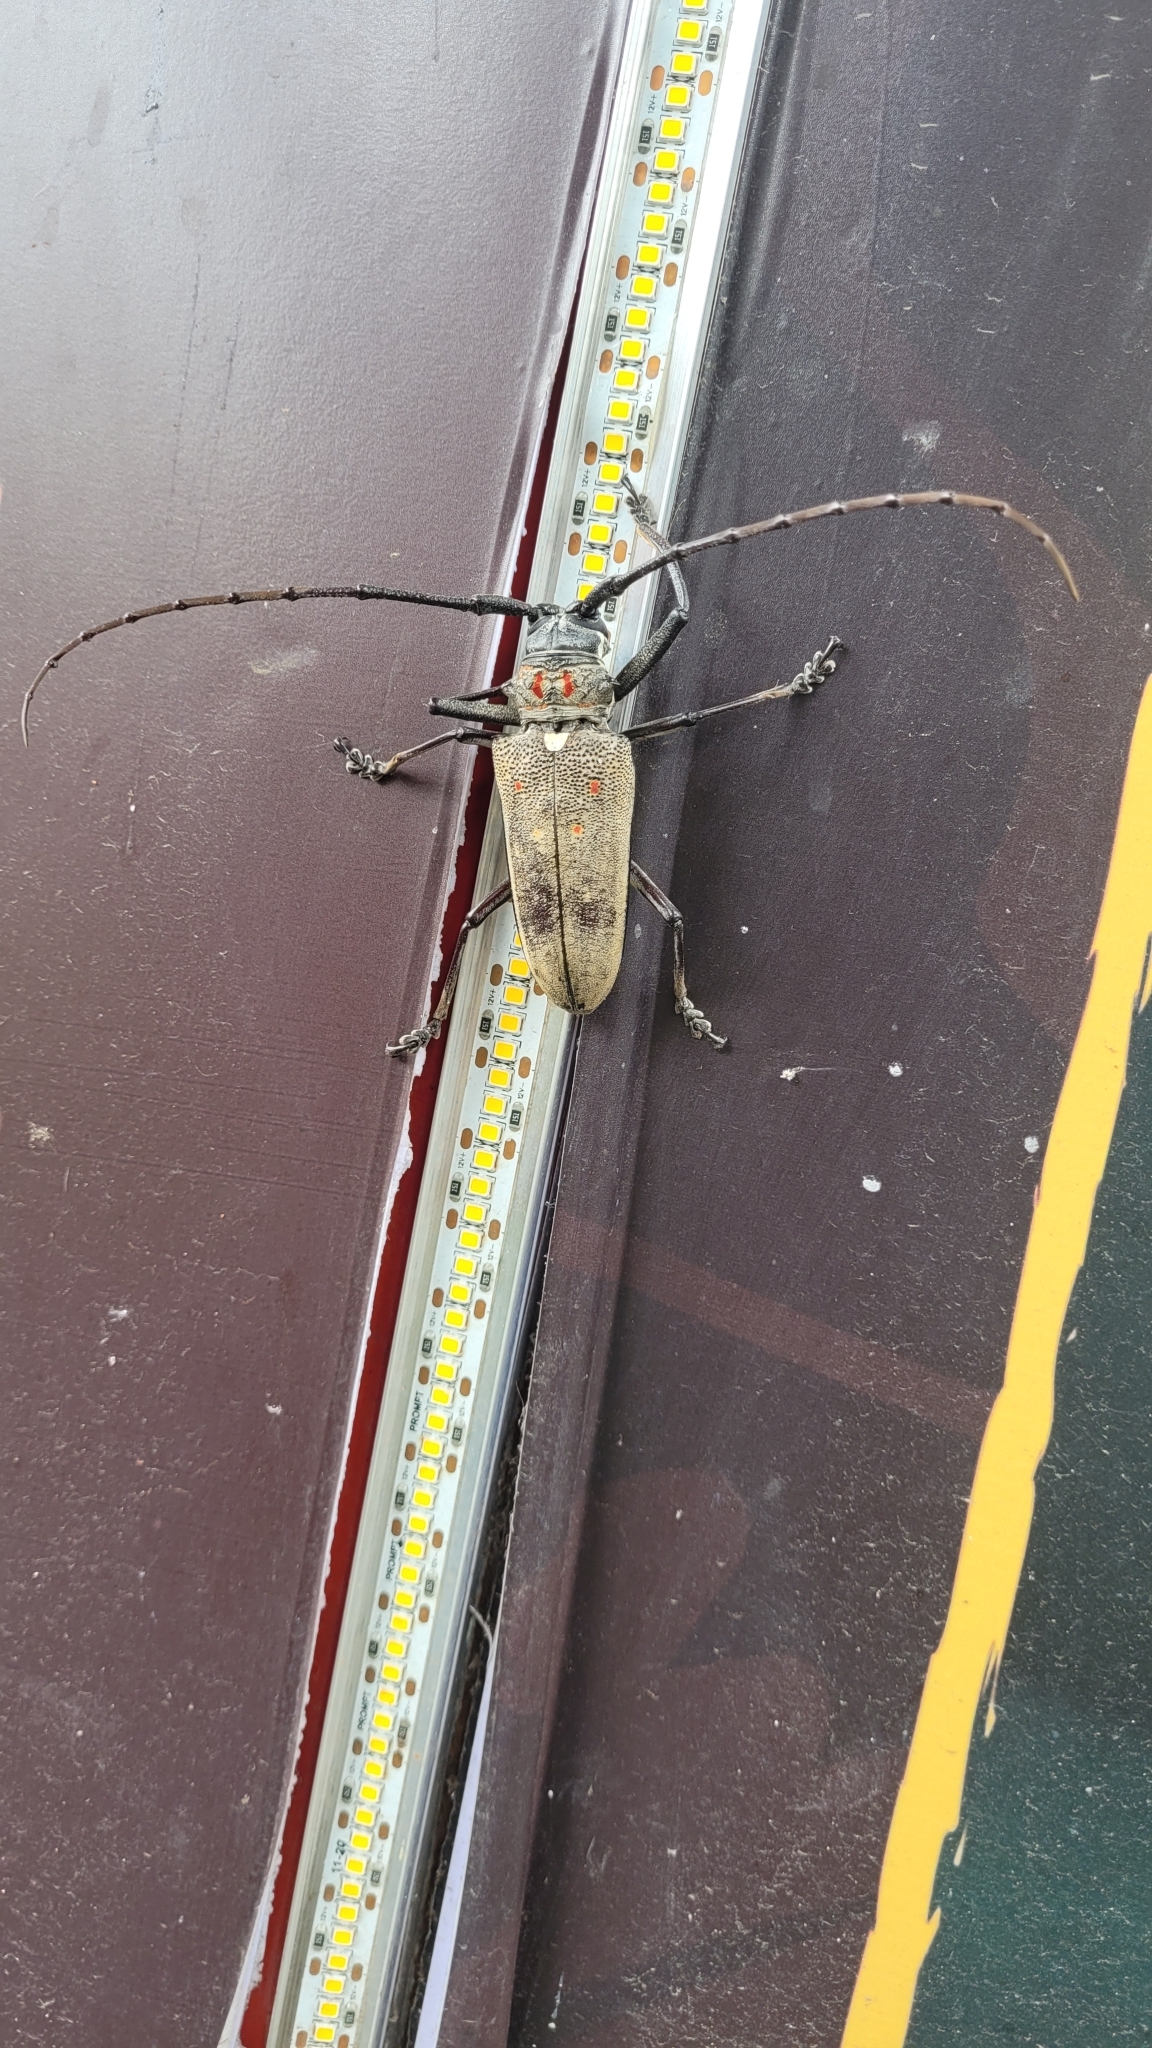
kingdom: Animalia
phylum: Arthropoda
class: Insecta
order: Coleoptera
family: Cerambycidae
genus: Batocera
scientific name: Batocera rufomaculata
